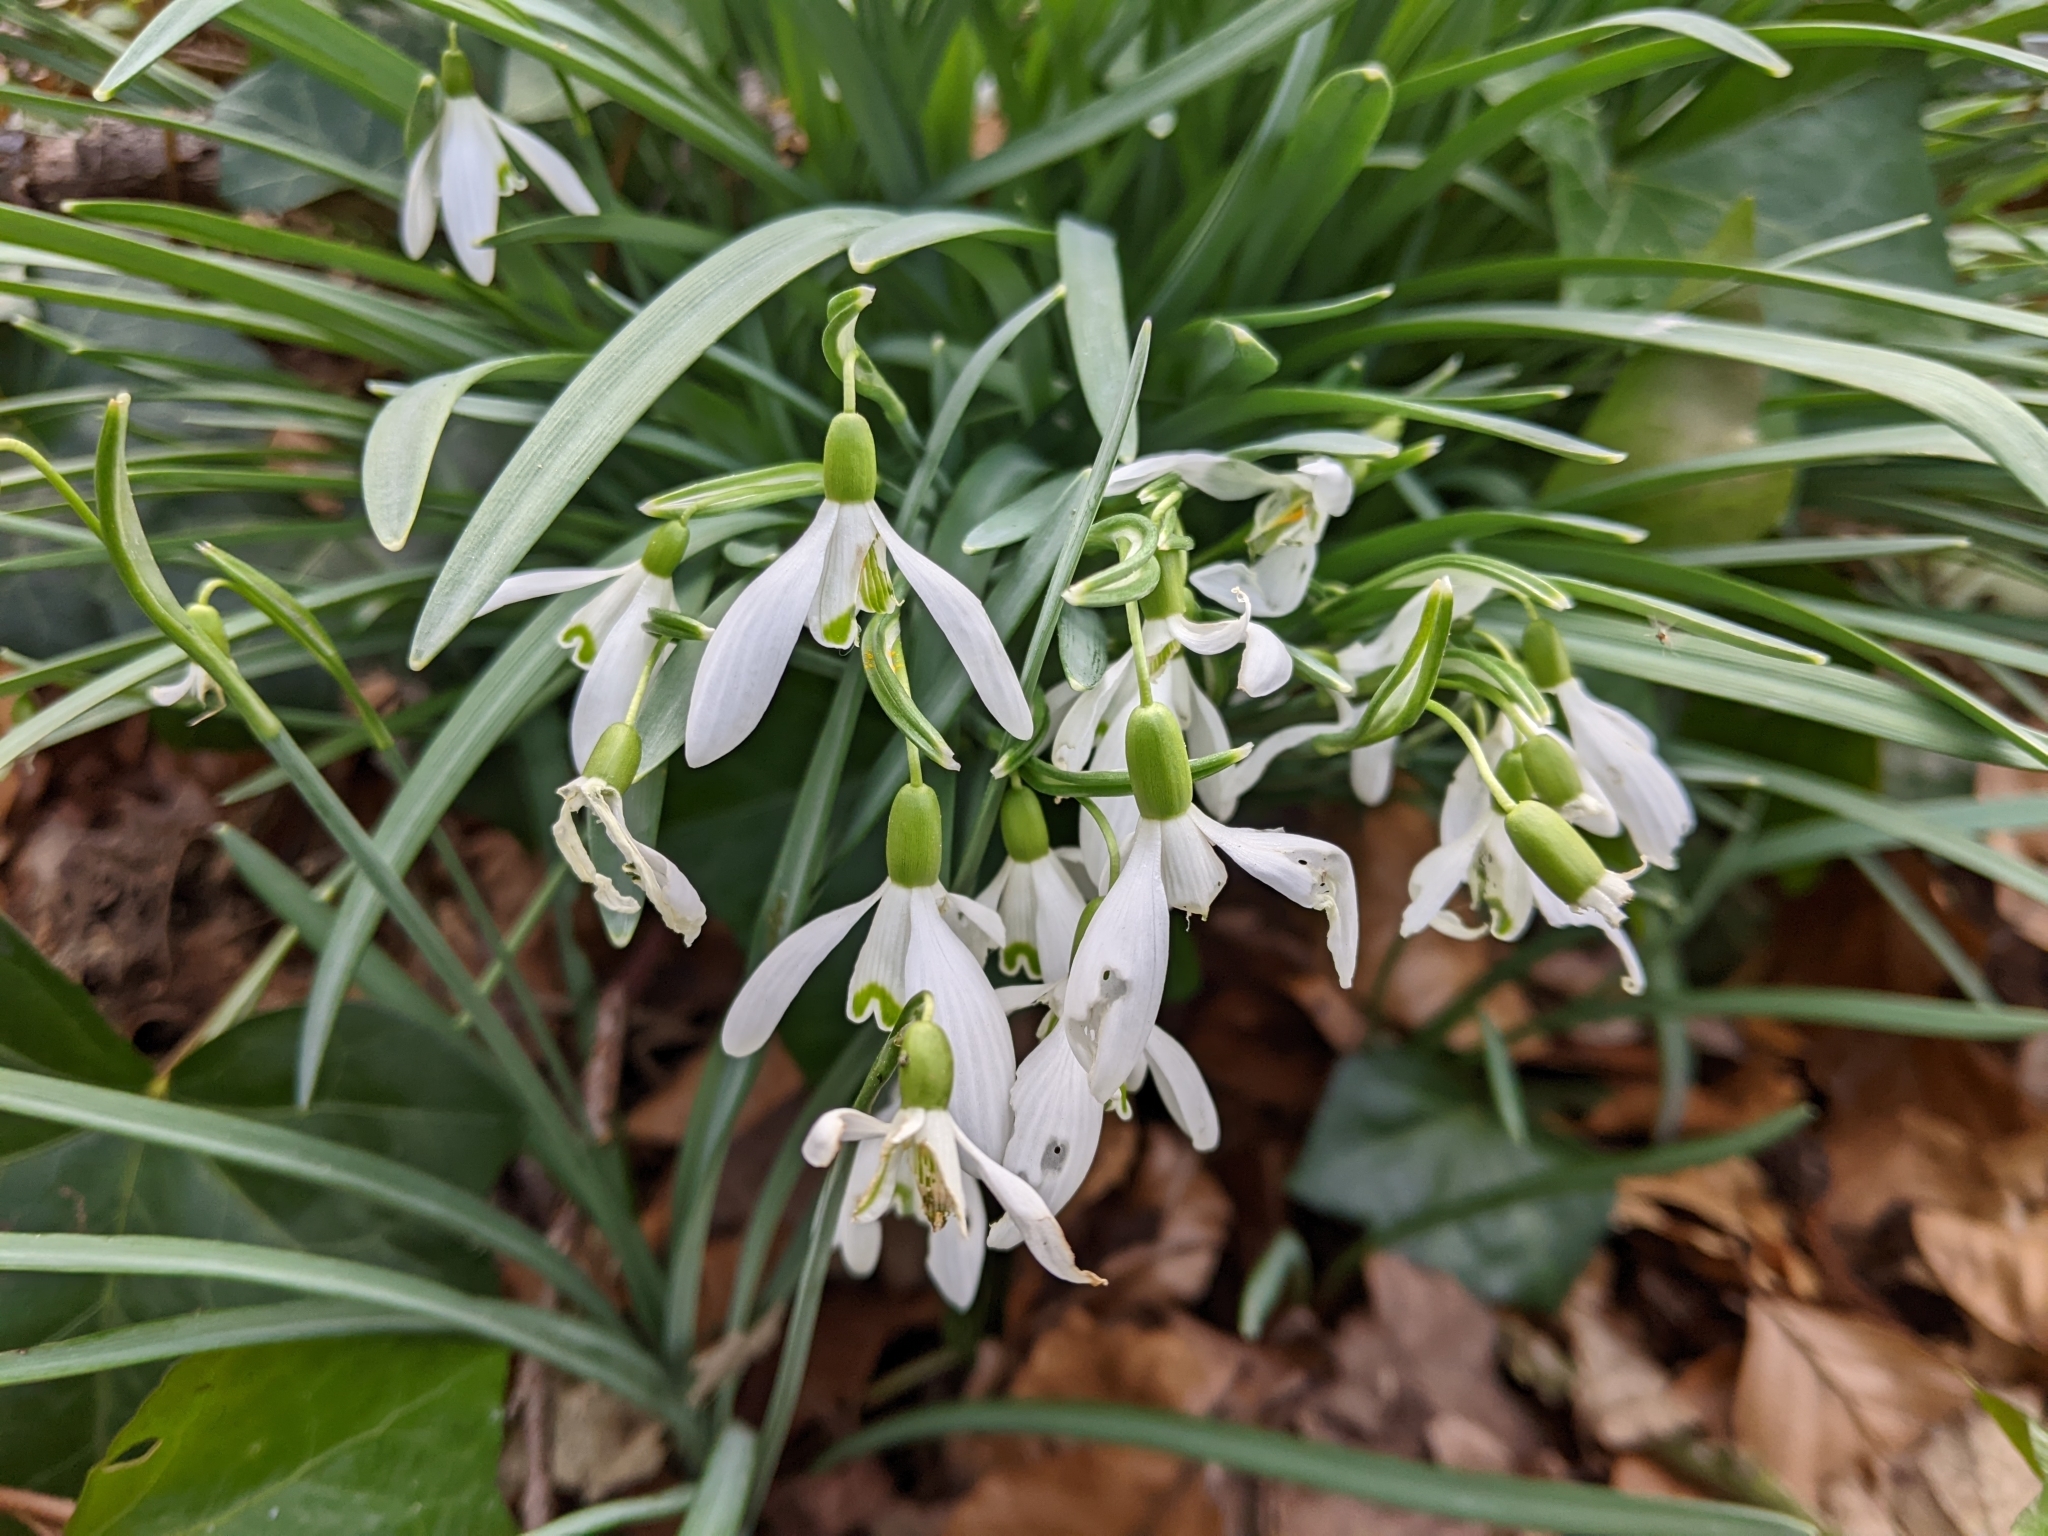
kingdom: Plantae
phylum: Tracheophyta
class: Liliopsida
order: Asparagales
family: Amaryllidaceae
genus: Galanthus
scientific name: Galanthus nivalis
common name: Snowdrop
